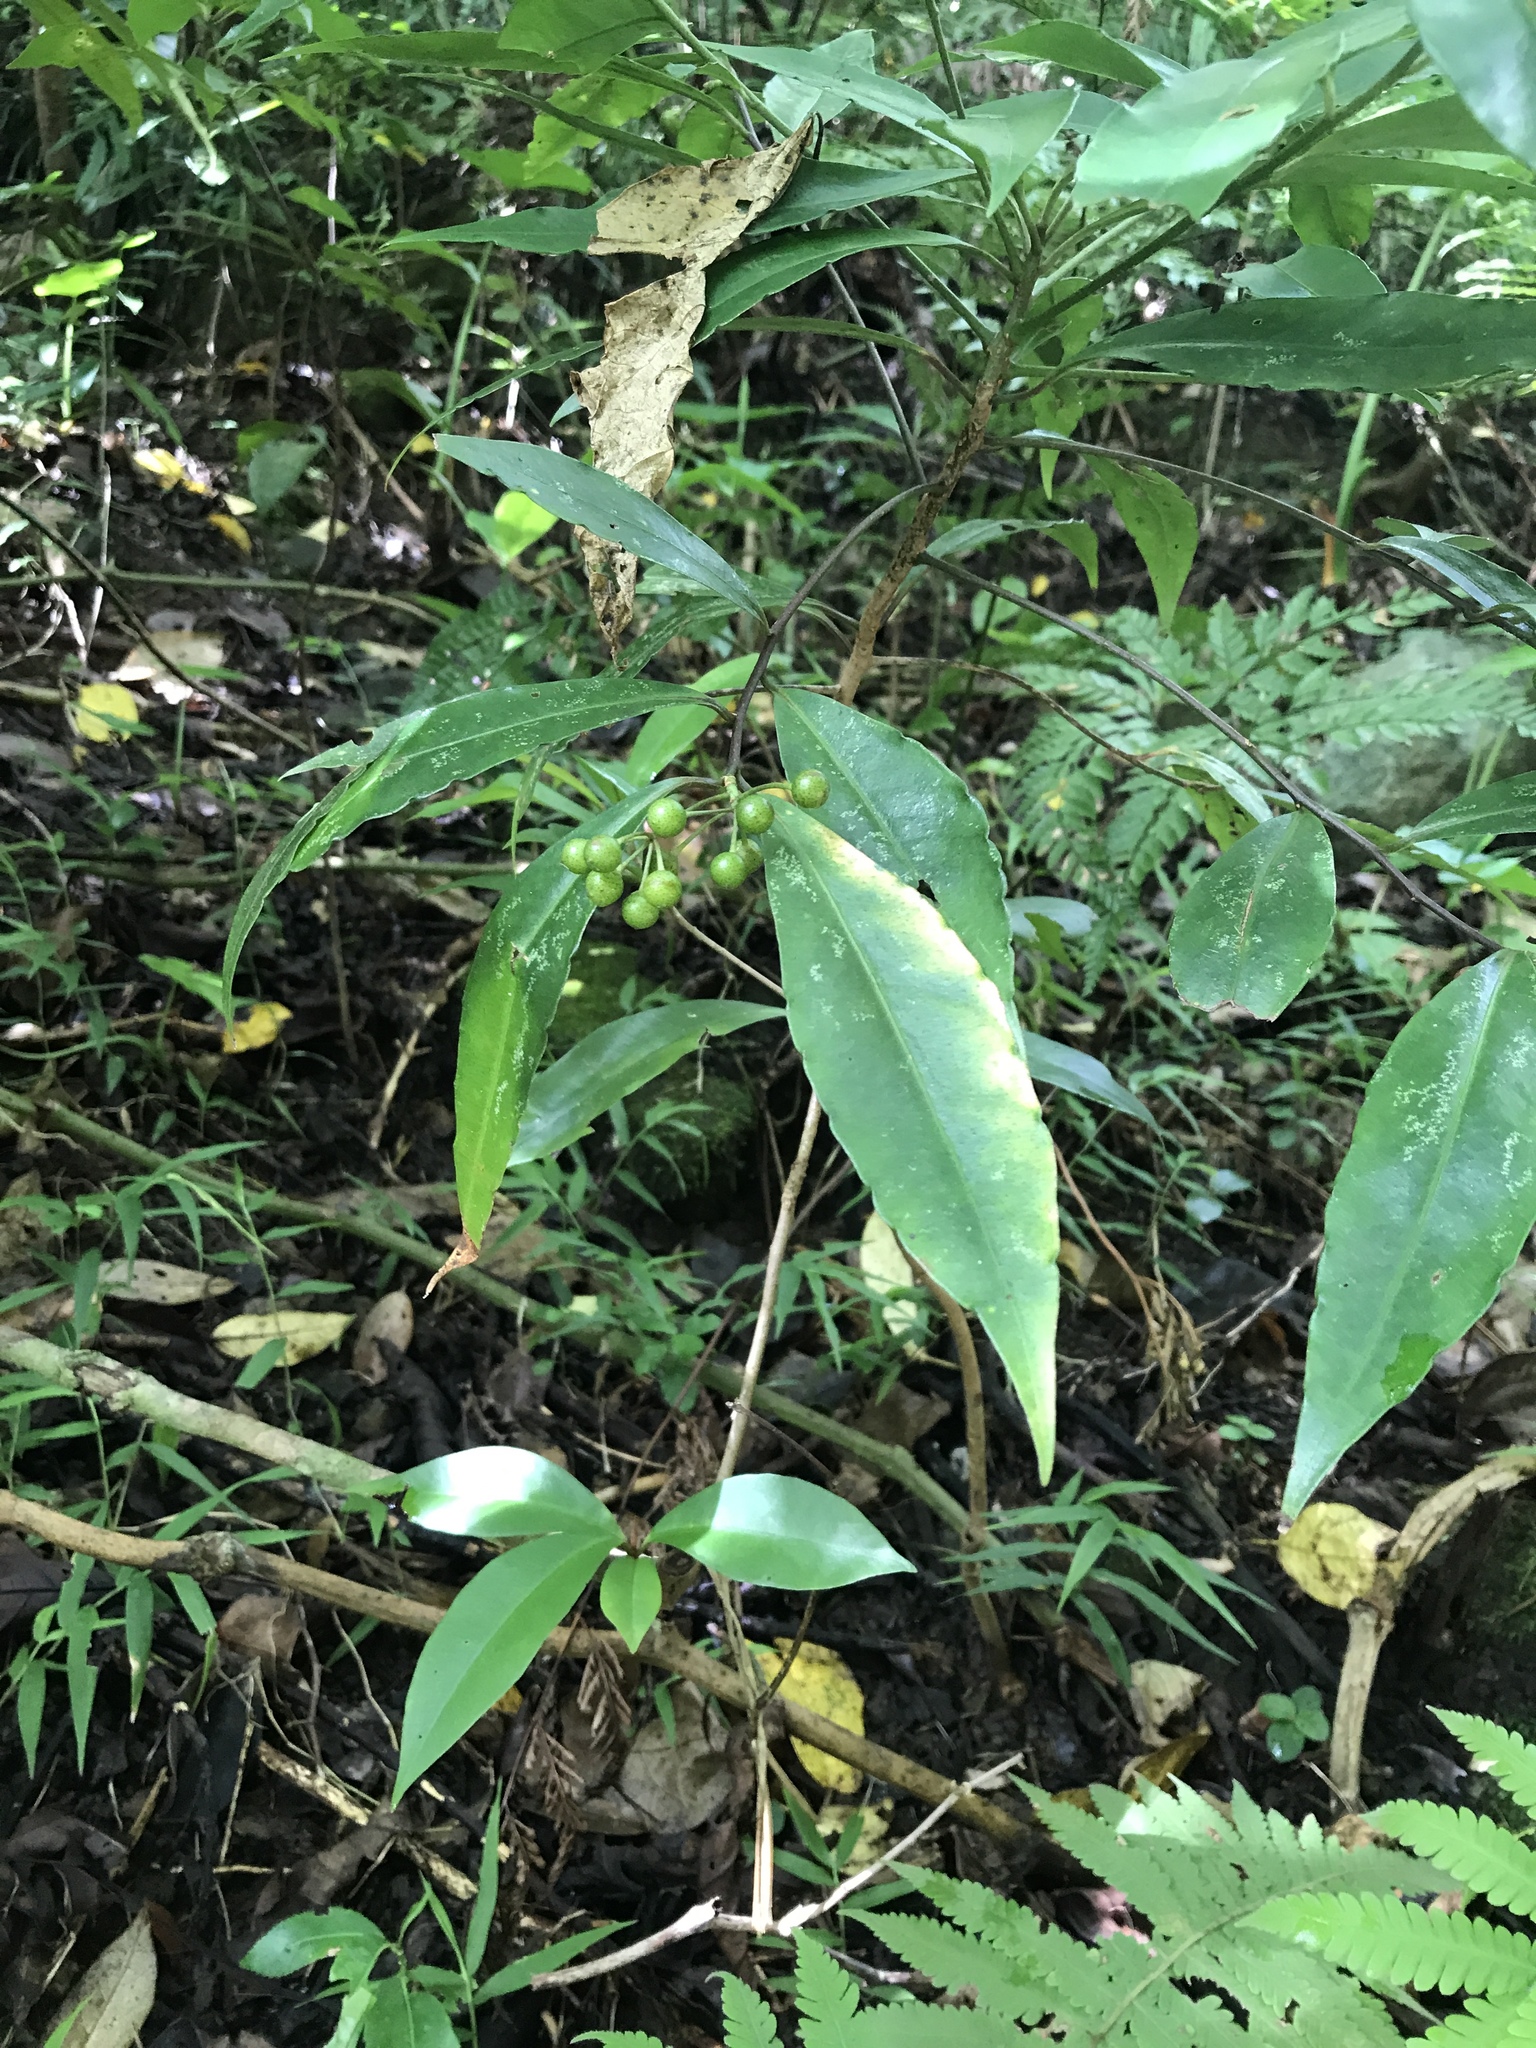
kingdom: Plantae
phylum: Tracheophyta
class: Magnoliopsida
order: Ericales
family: Primulaceae
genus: Ardisia
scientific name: Ardisia crenata
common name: Hen's eyes
